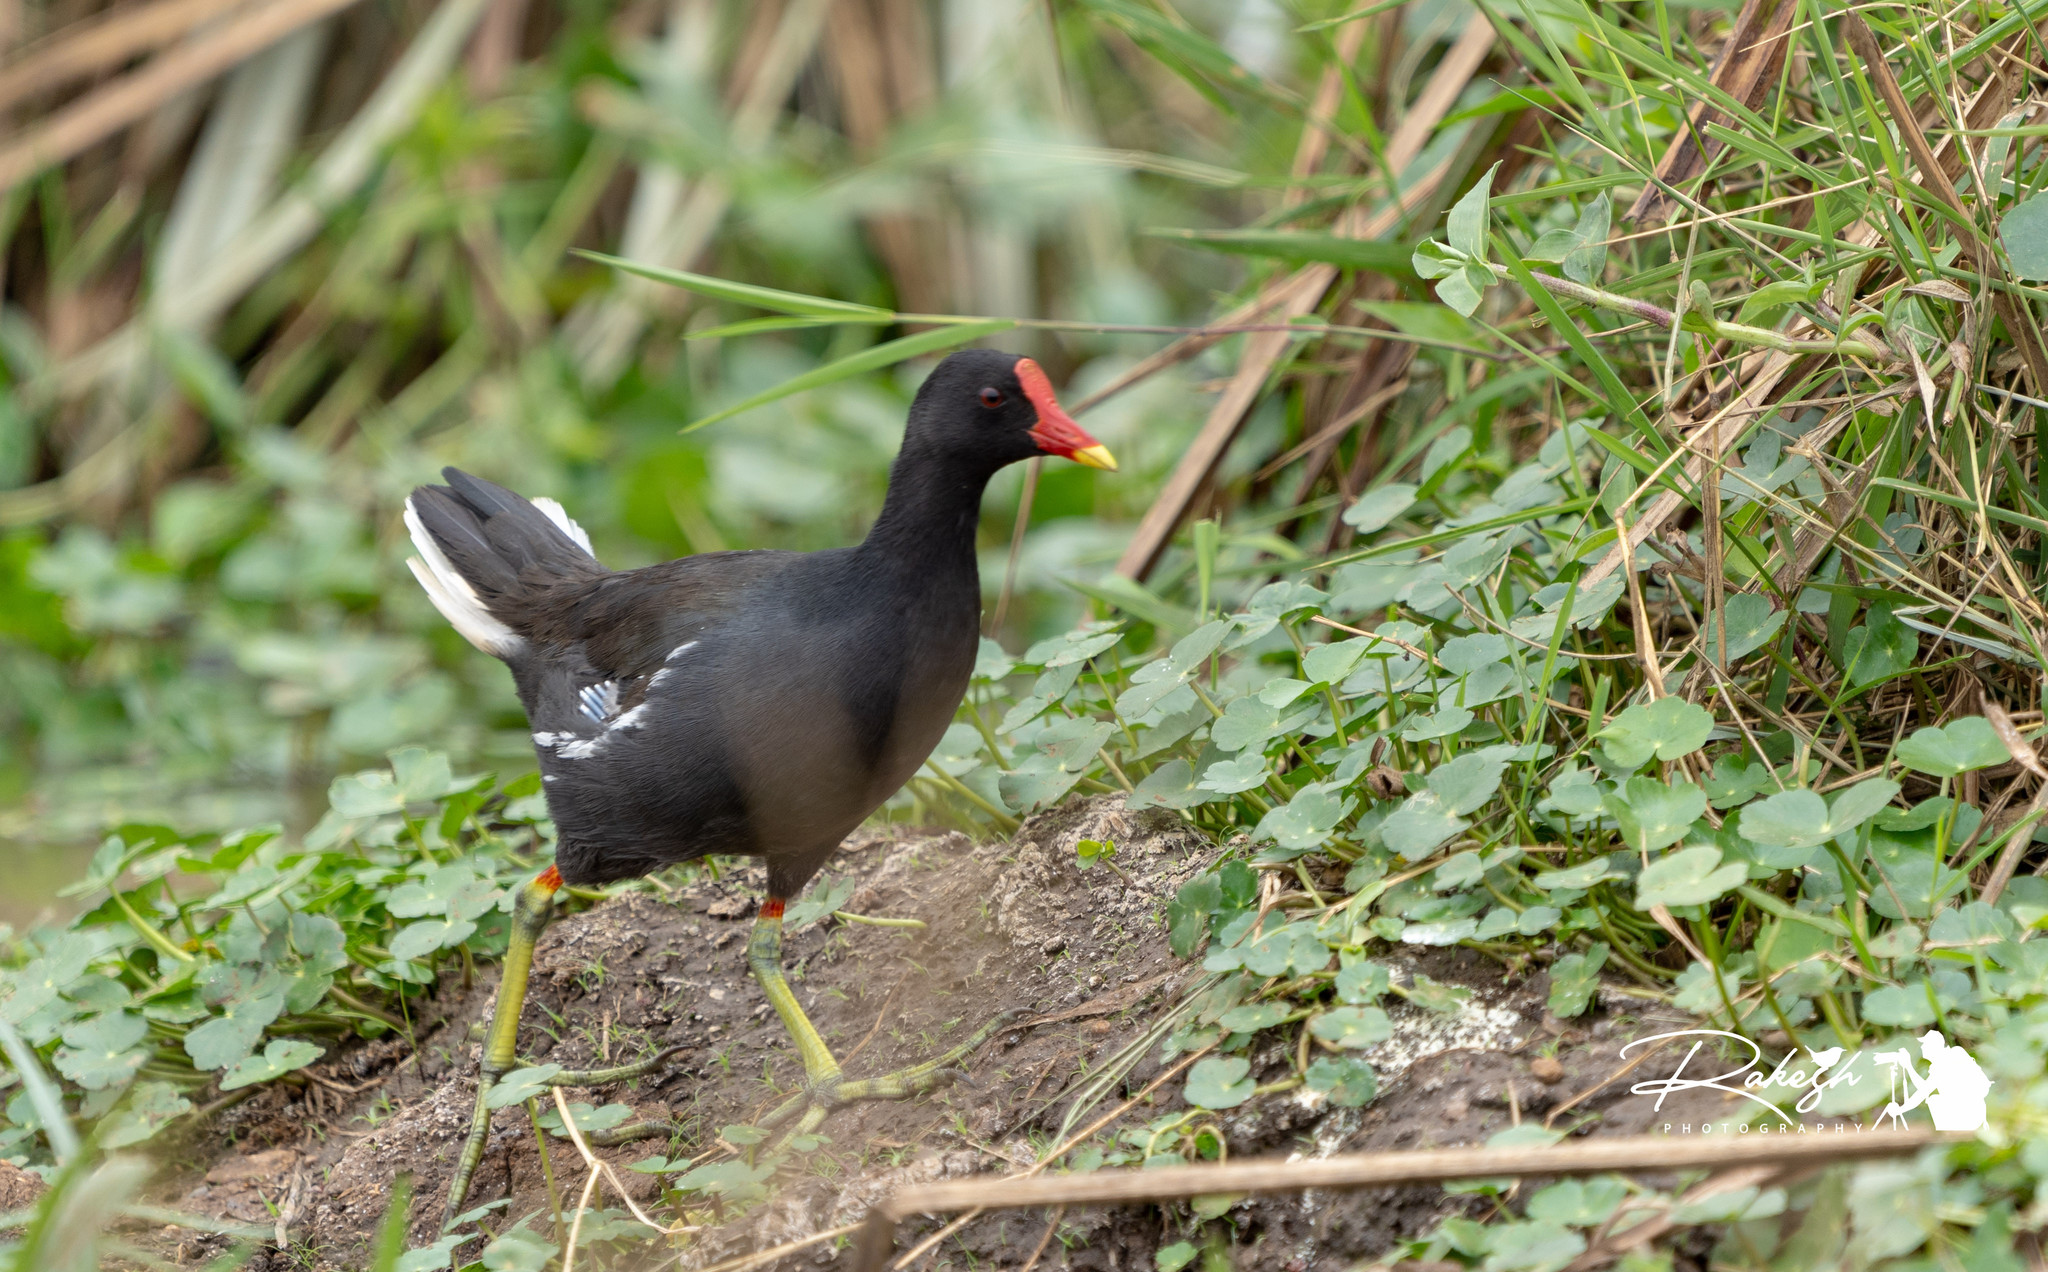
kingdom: Animalia
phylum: Chordata
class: Aves
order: Gruiformes
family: Rallidae
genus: Gallinula
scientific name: Gallinula chloropus
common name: Common moorhen
